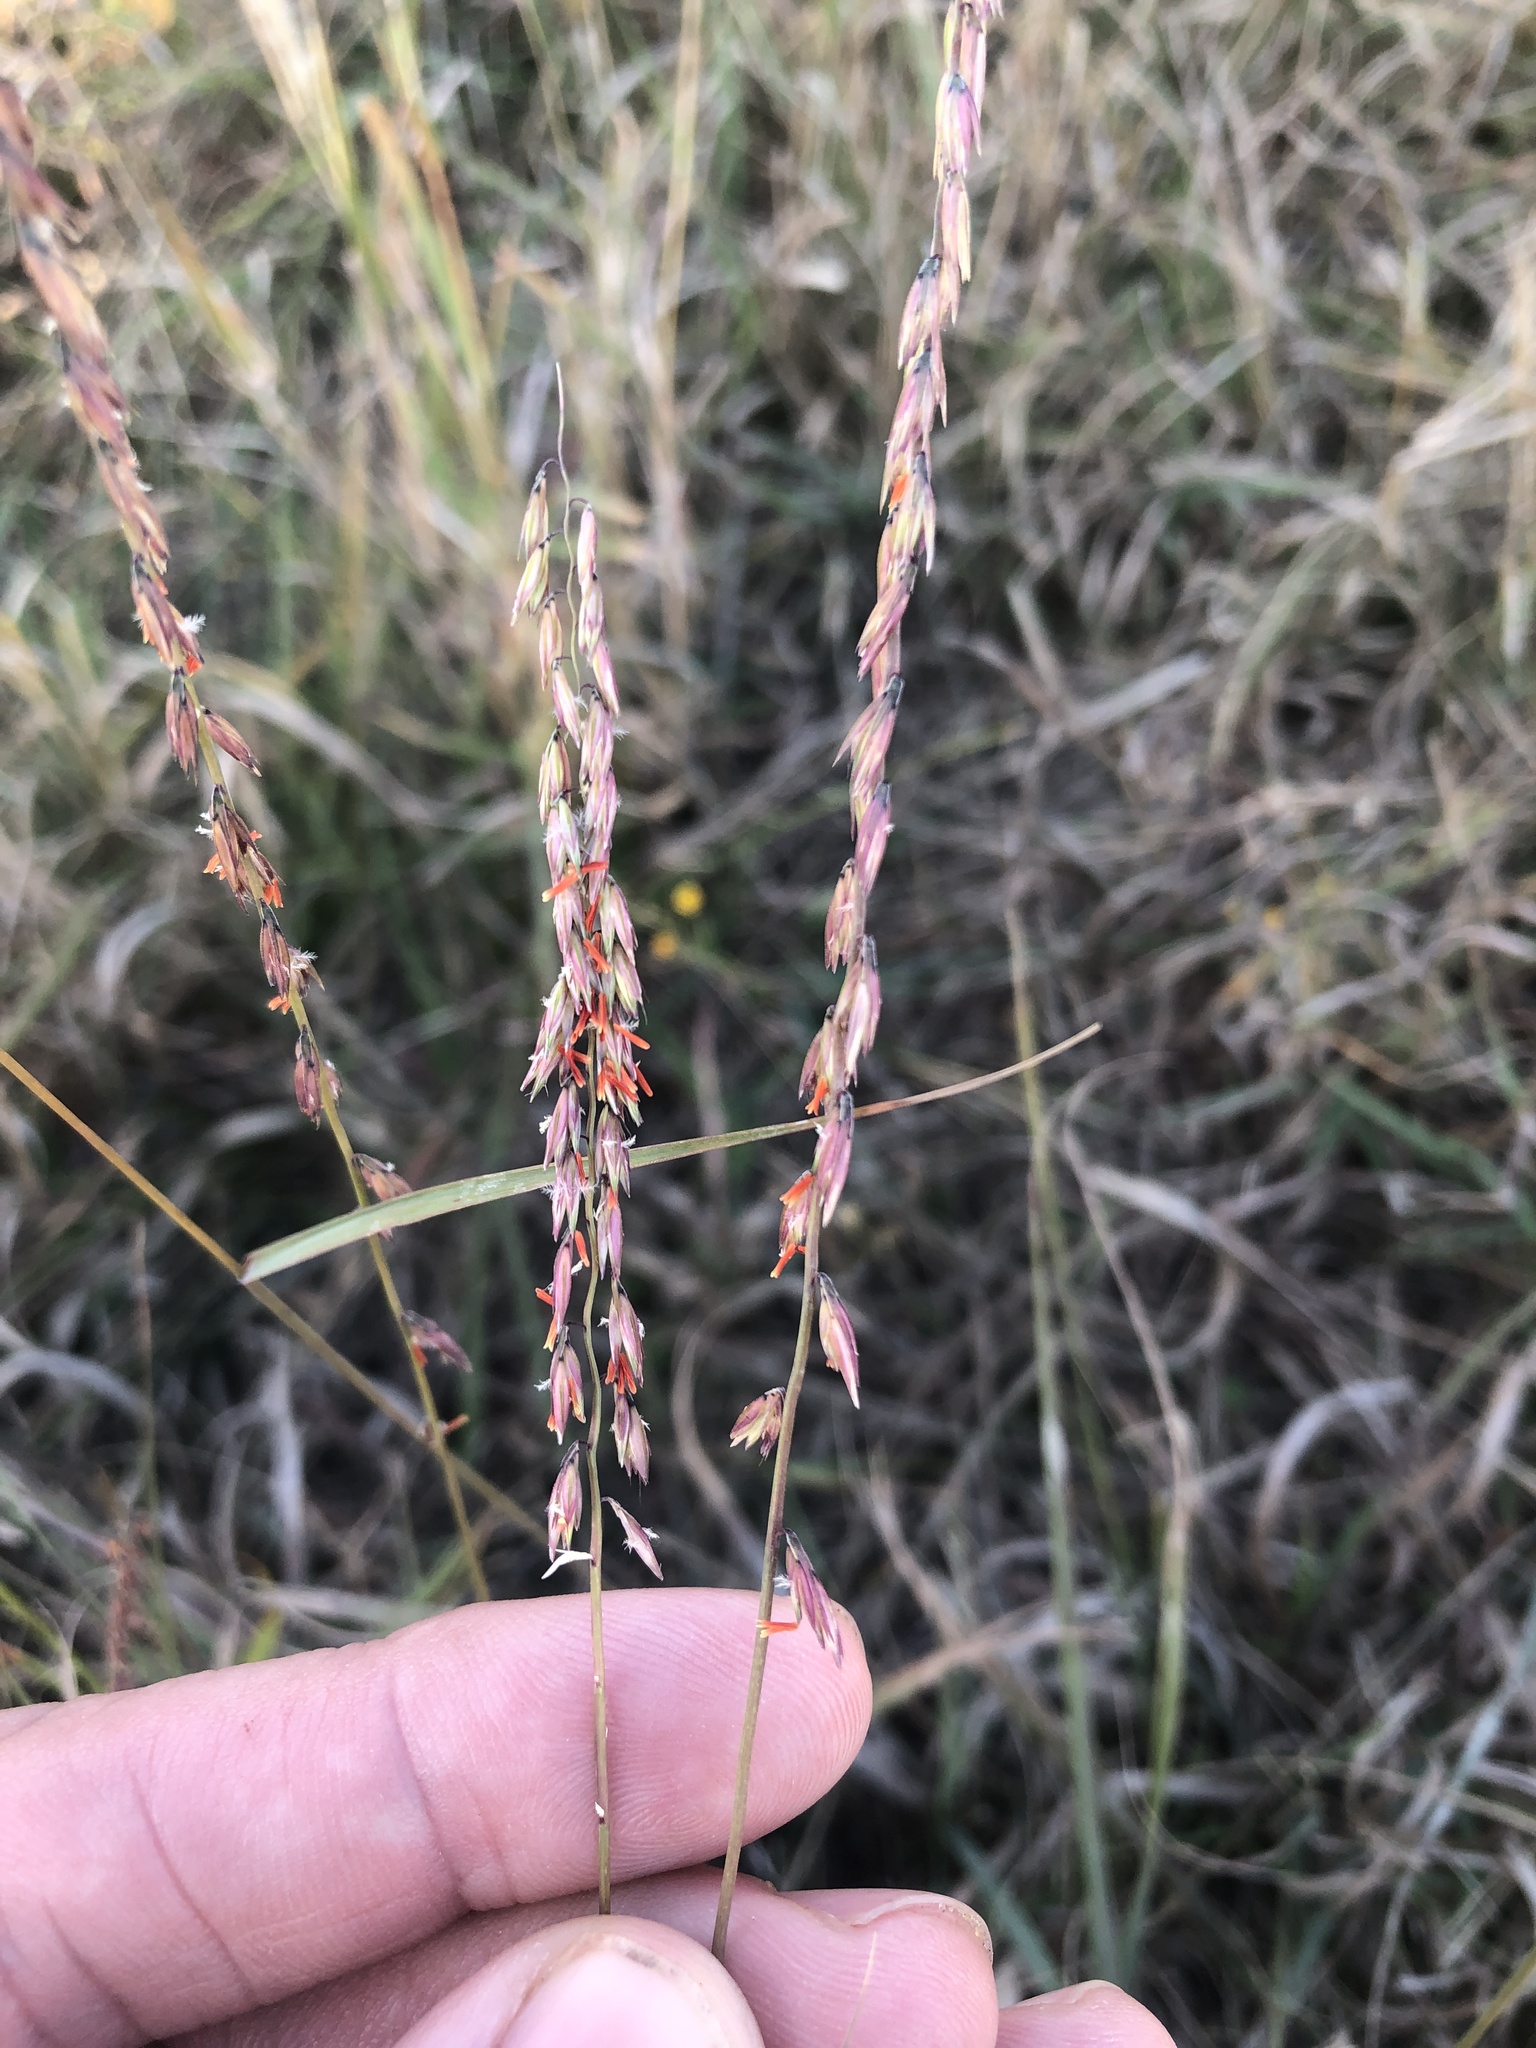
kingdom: Plantae
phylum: Tracheophyta
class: Liliopsida
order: Poales
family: Poaceae
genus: Bouteloua
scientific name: Bouteloua curtipendula
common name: Side-oats grama
